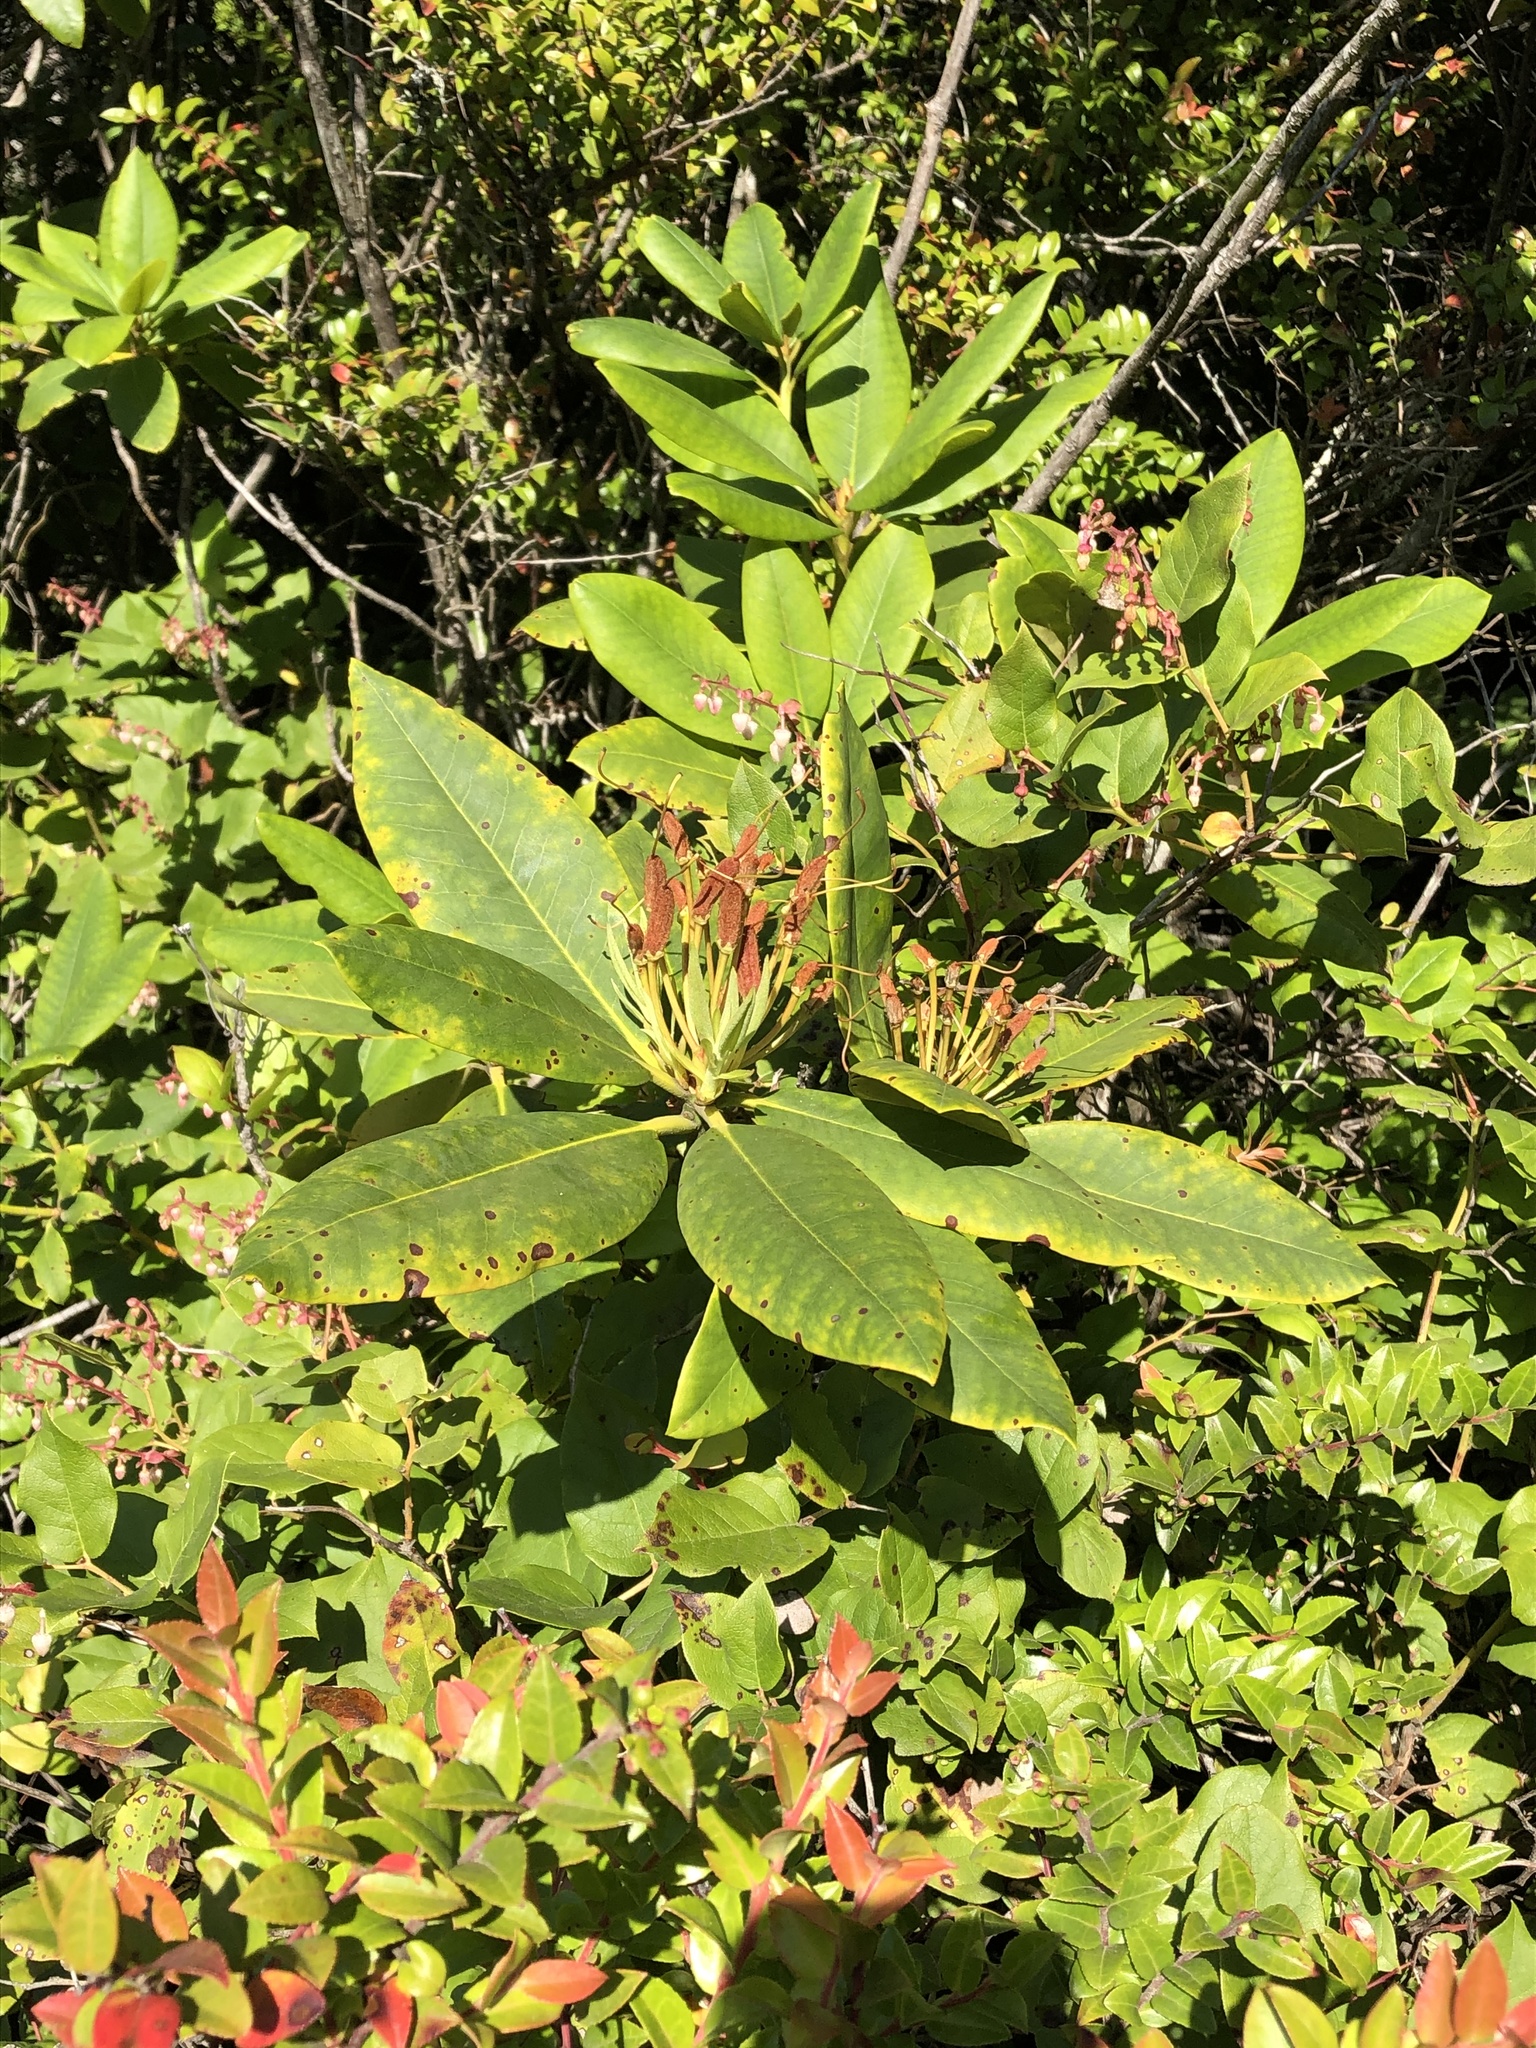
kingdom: Plantae
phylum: Tracheophyta
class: Magnoliopsida
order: Ericales
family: Ericaceae
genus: Rhododendron
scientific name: Rhododendron macrophyllum
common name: California rose bay
